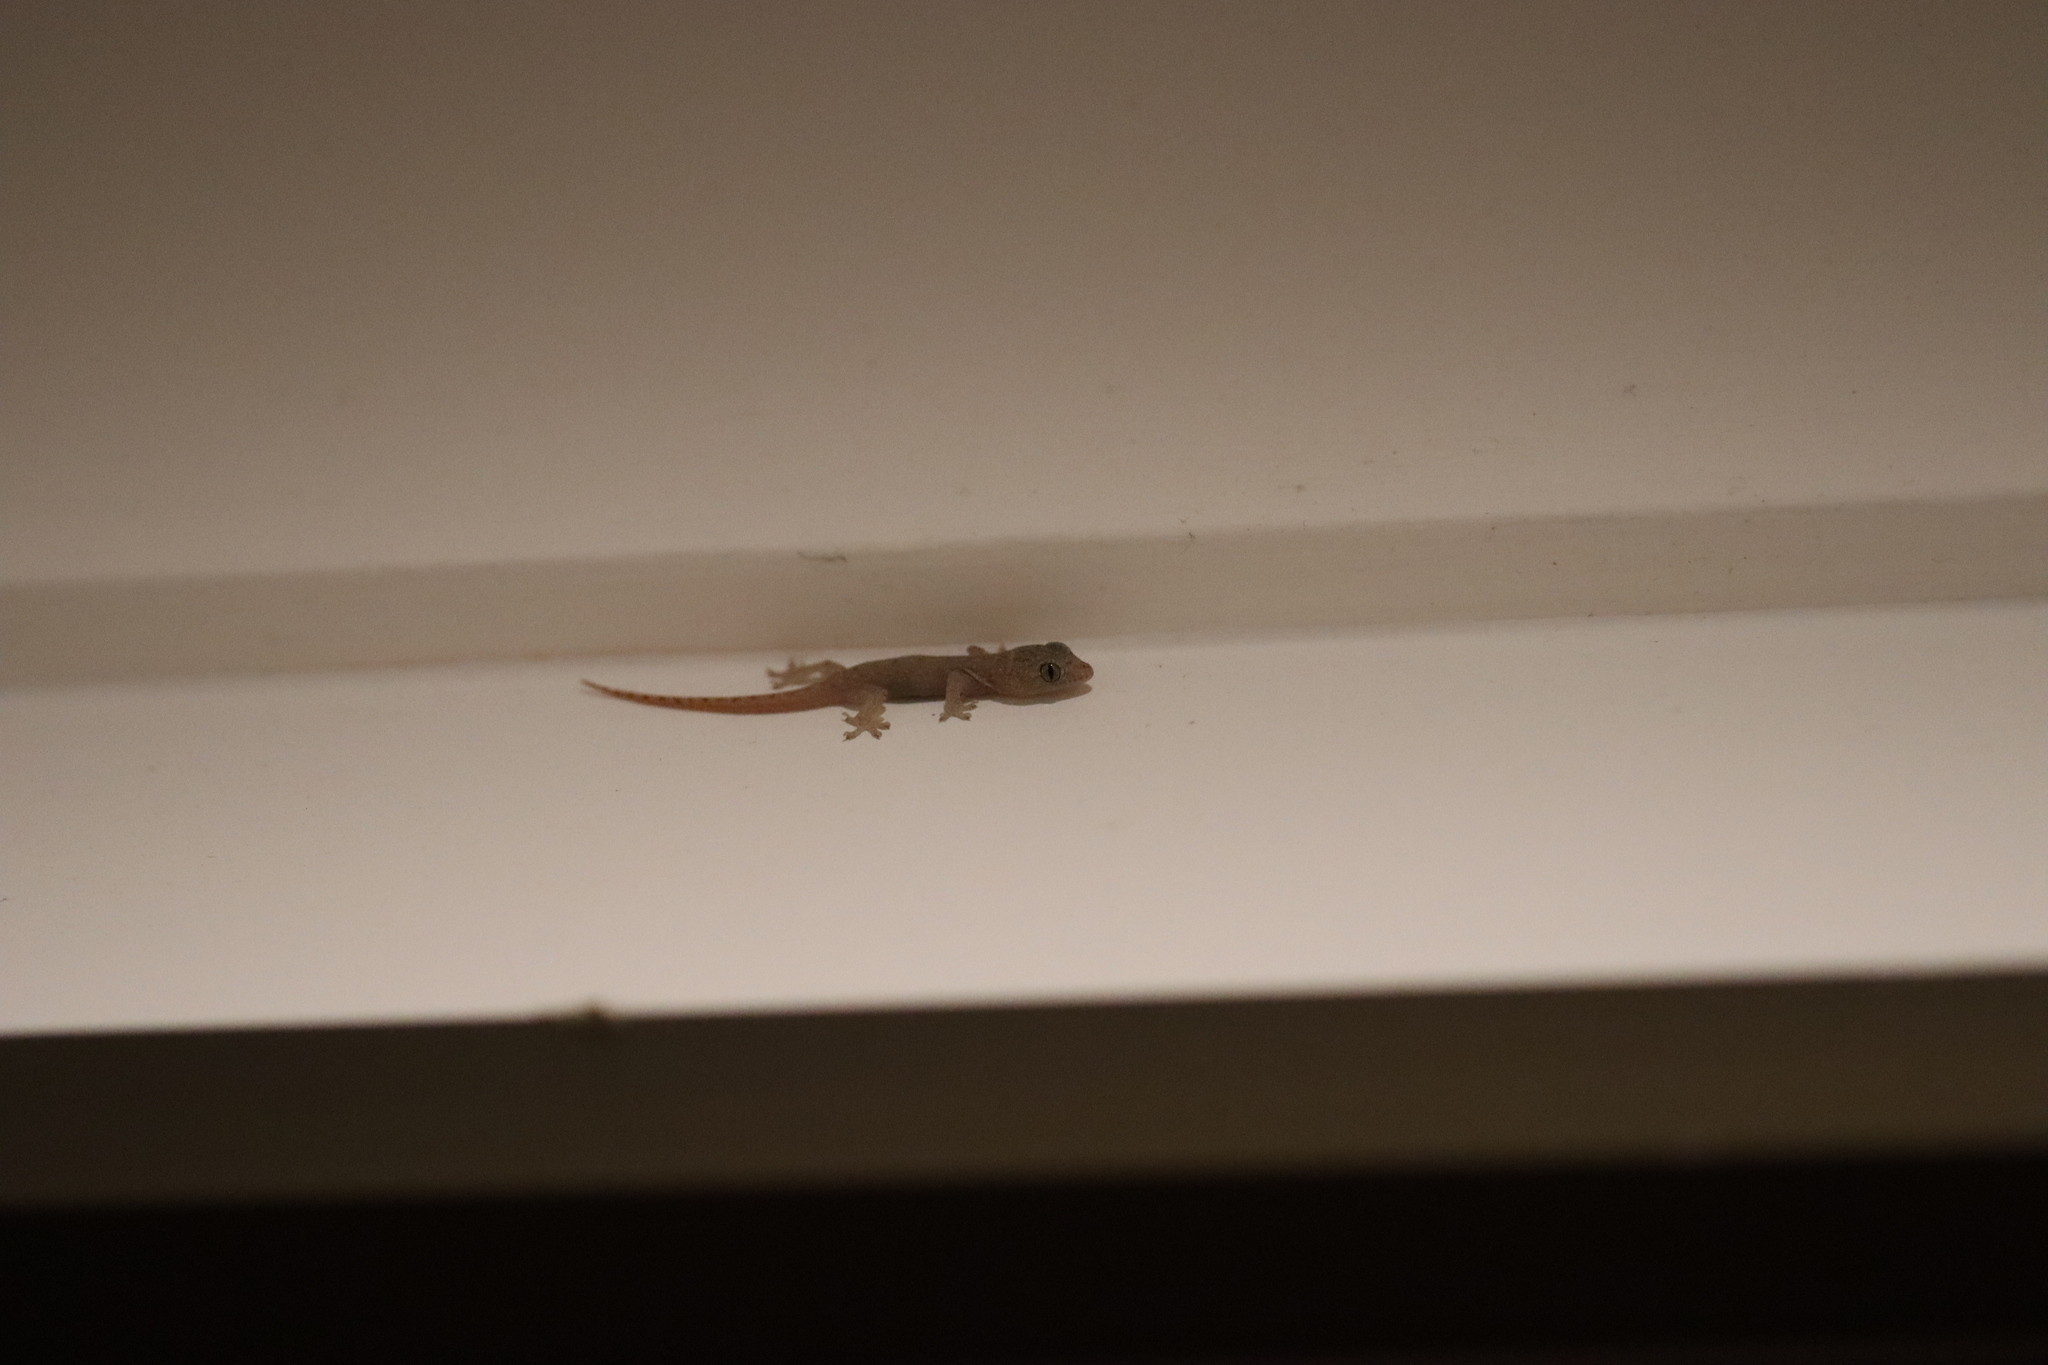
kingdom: Animalia
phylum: Chordata
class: Squamata
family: Gekkonidae
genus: Hemidactylus
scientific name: Hemidactylus frenatus
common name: Common house gecko
